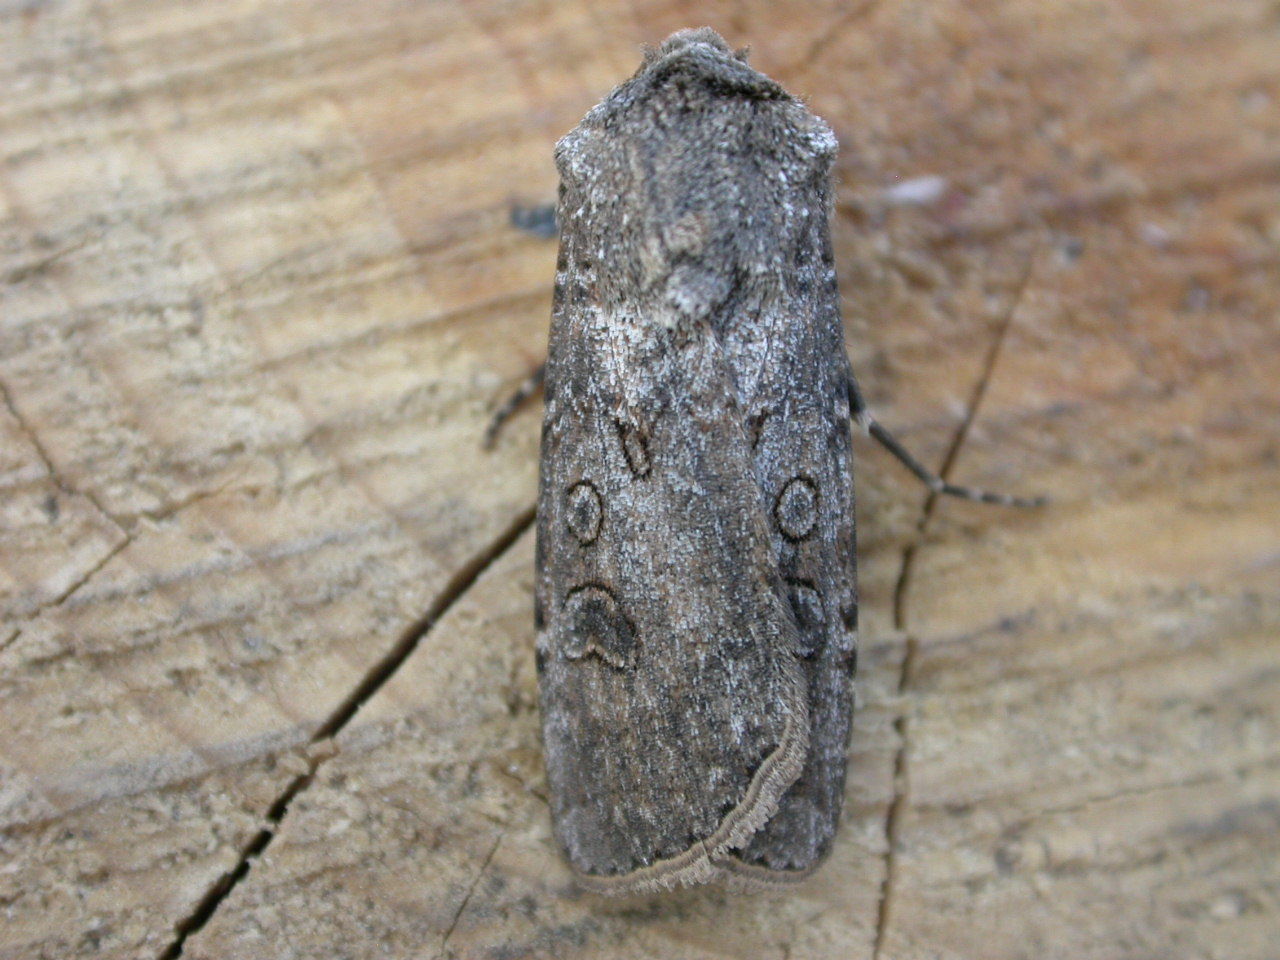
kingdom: Animalia
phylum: Arthropoda
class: Insecta
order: Lepidoptera
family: Noctuidae
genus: Agrotis
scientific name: Agrotis segetum
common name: Turnip moth
